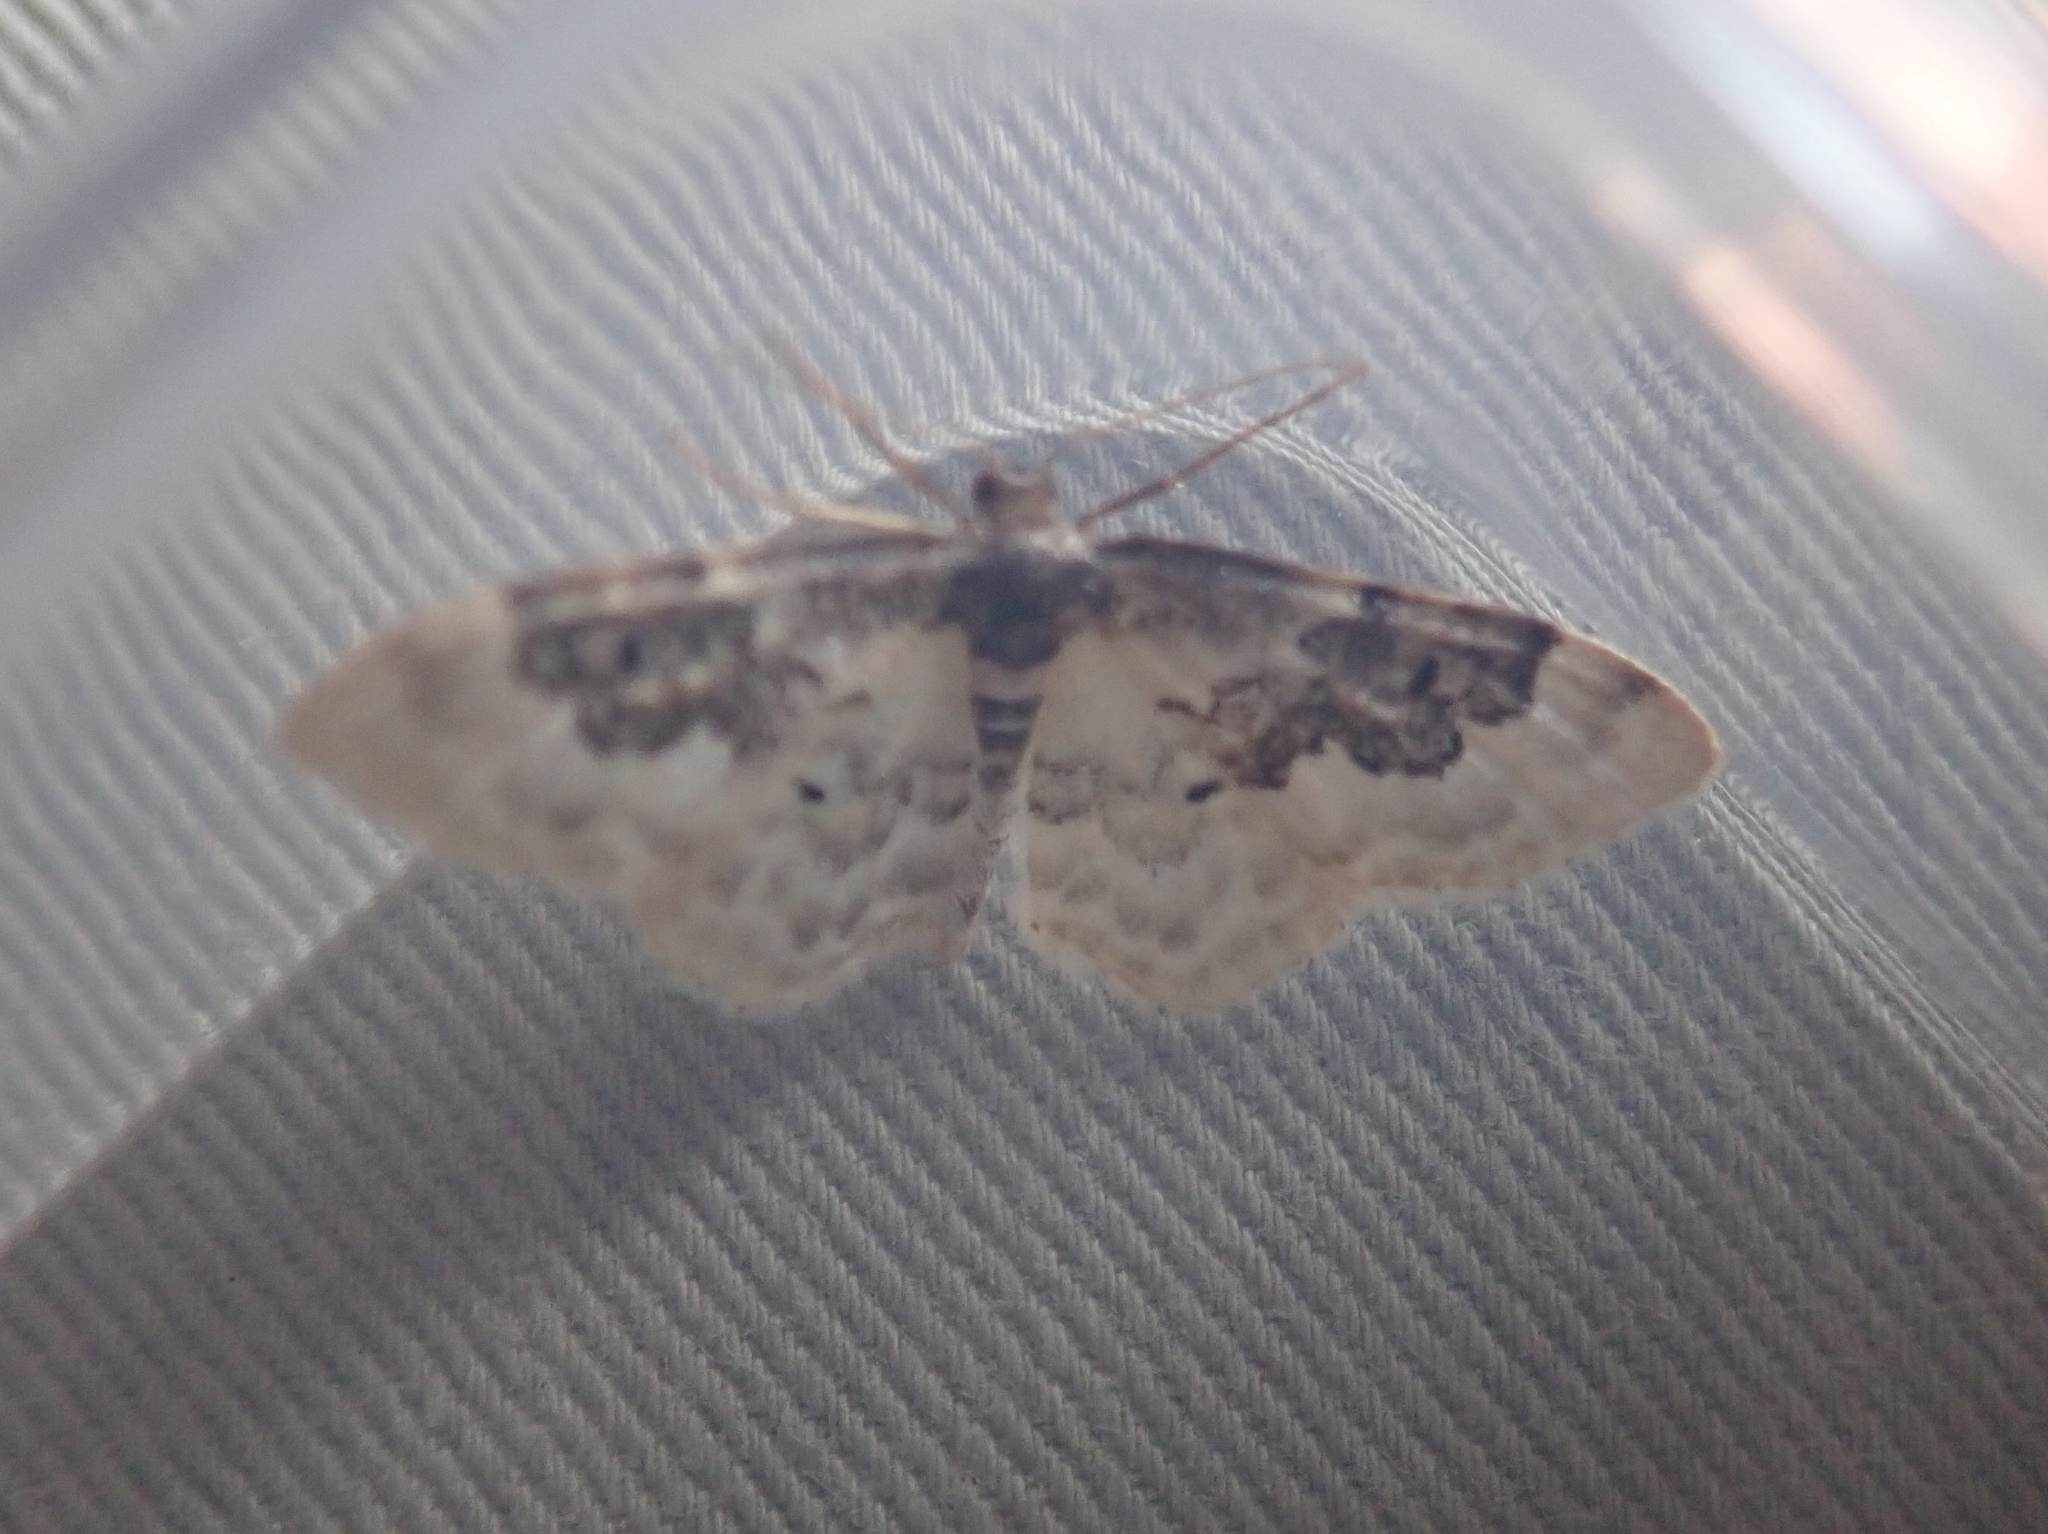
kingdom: Animalia
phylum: Arthropoda
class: Insecta
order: Lepidoptera
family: Geometridae
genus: Idaea
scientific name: Idaea rusticata
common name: Least carpet
